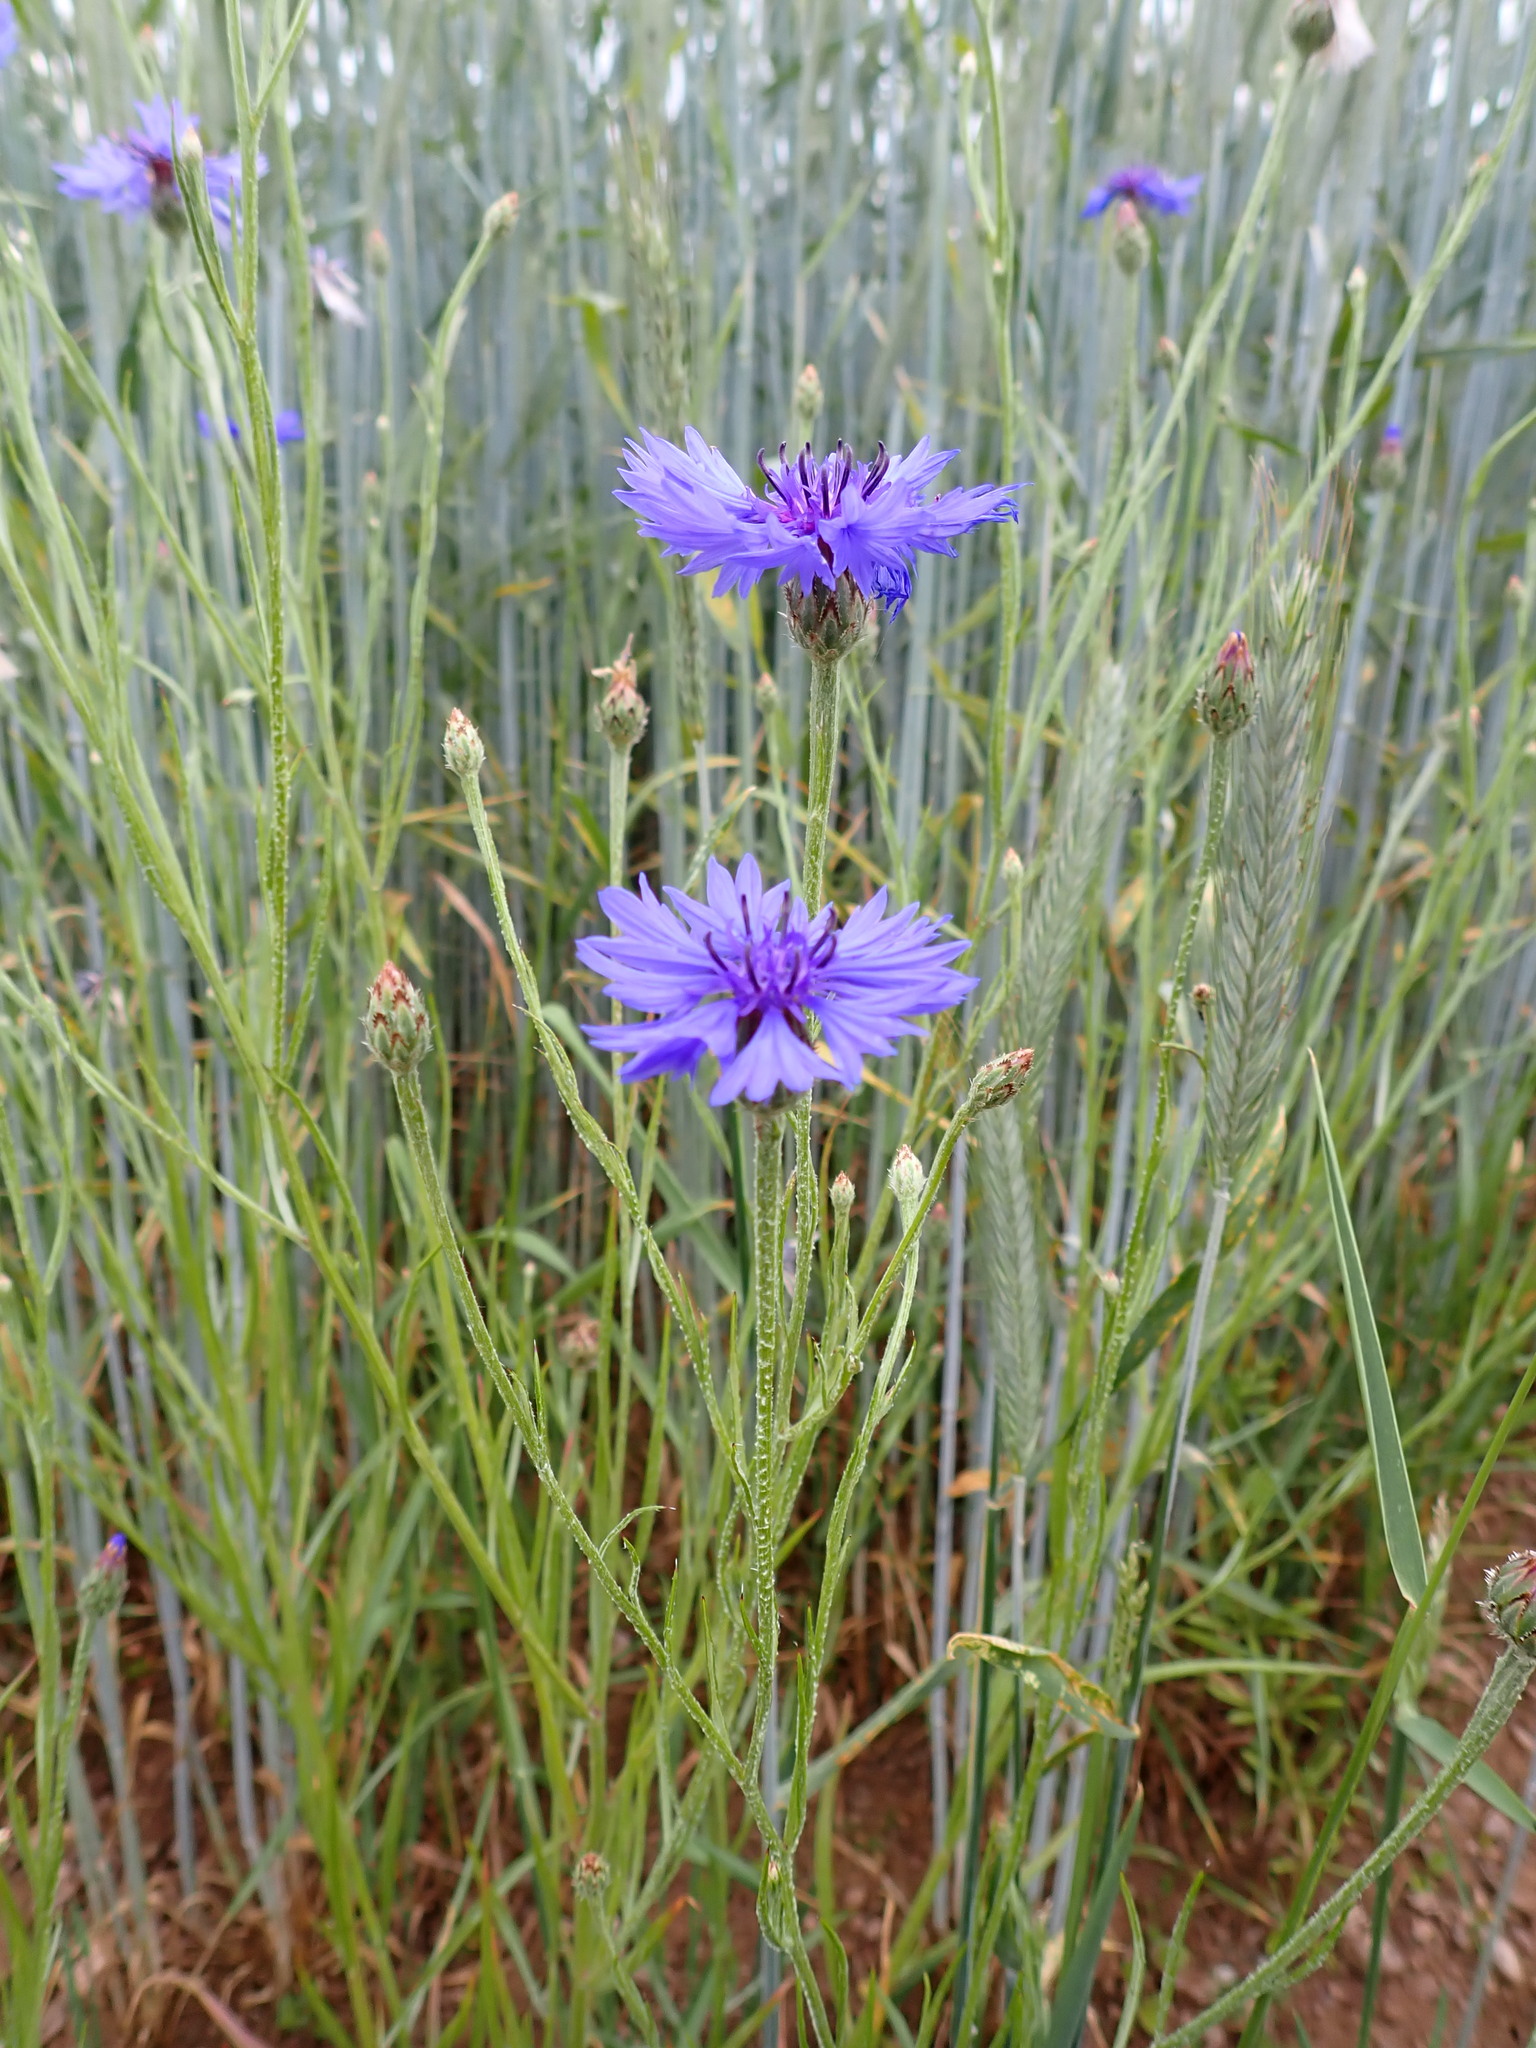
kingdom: Plantae
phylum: Tracheophyta
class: Magnoliopsida
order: Asterales
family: Asteraceae
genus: Centaurea
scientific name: Centaurea cyanus
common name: Cornflower
